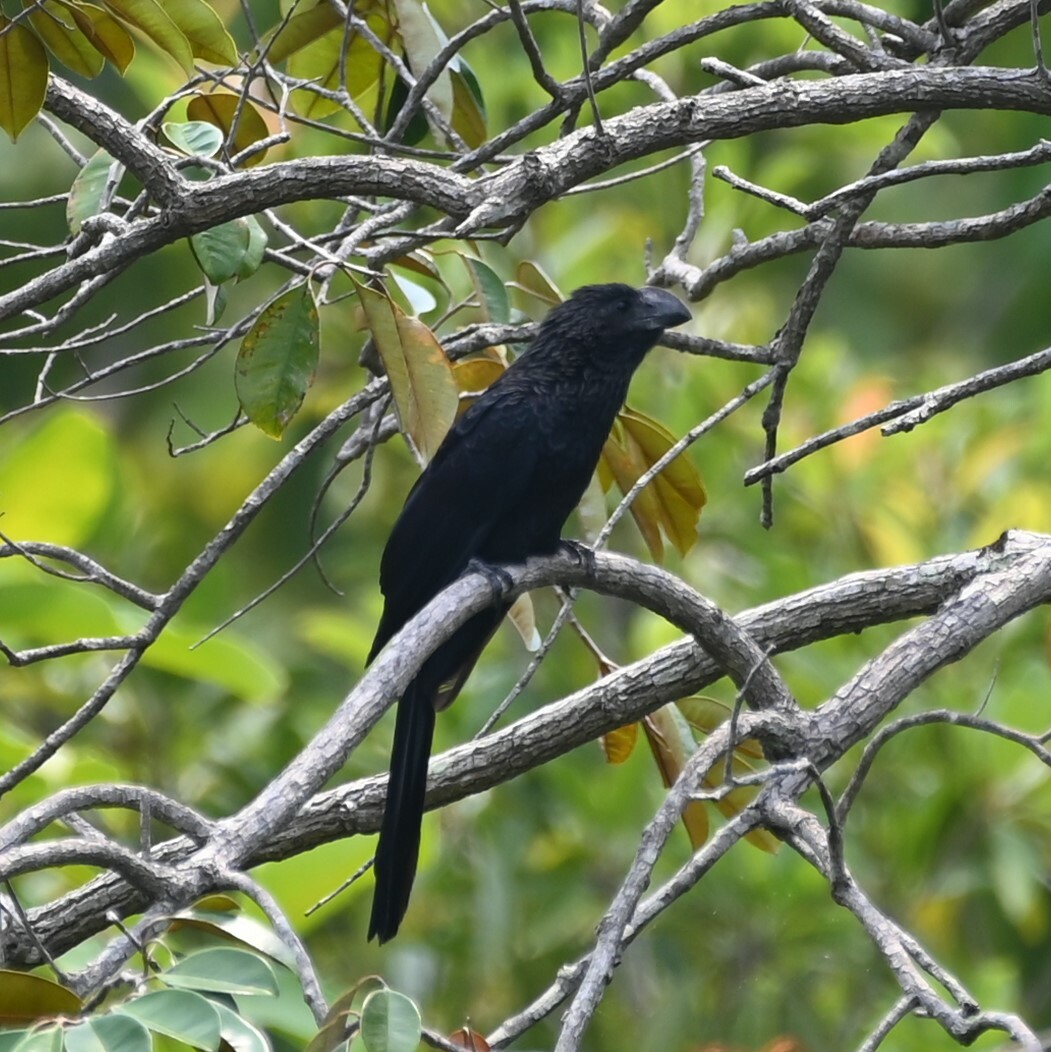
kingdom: Animalia
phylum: Chordata
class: Aves
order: Cuculiformes
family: Cuculidae
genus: Crotophaga
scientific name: Crotophaga ani
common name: Smooth-billed ani
